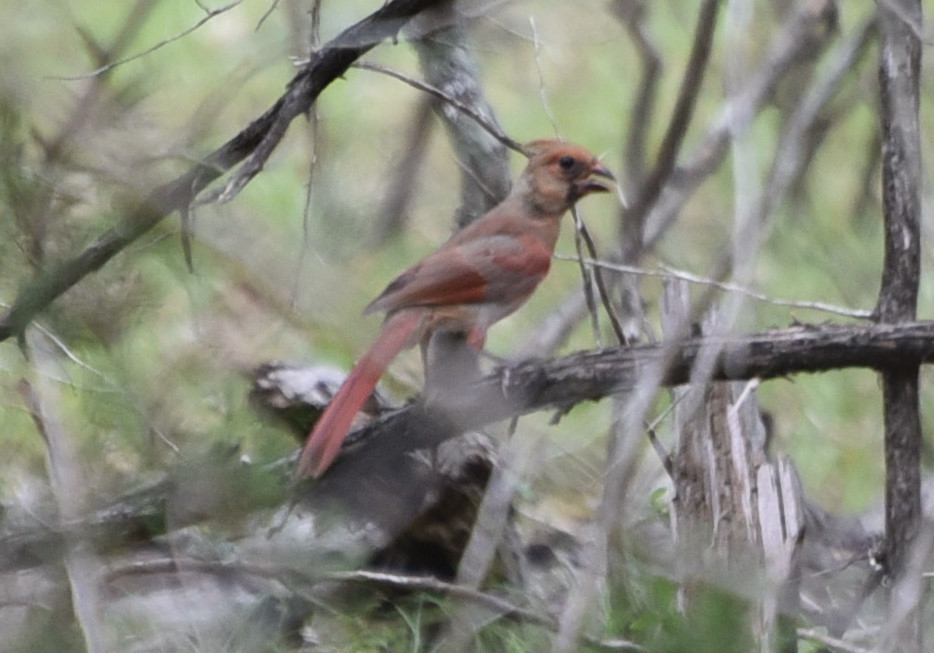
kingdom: Animalia
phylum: Chordata
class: Aves
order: Passeriformes
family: Cardinalidae
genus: Cardinalis
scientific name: Cardinalis cardinalis
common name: Northern cardinal
